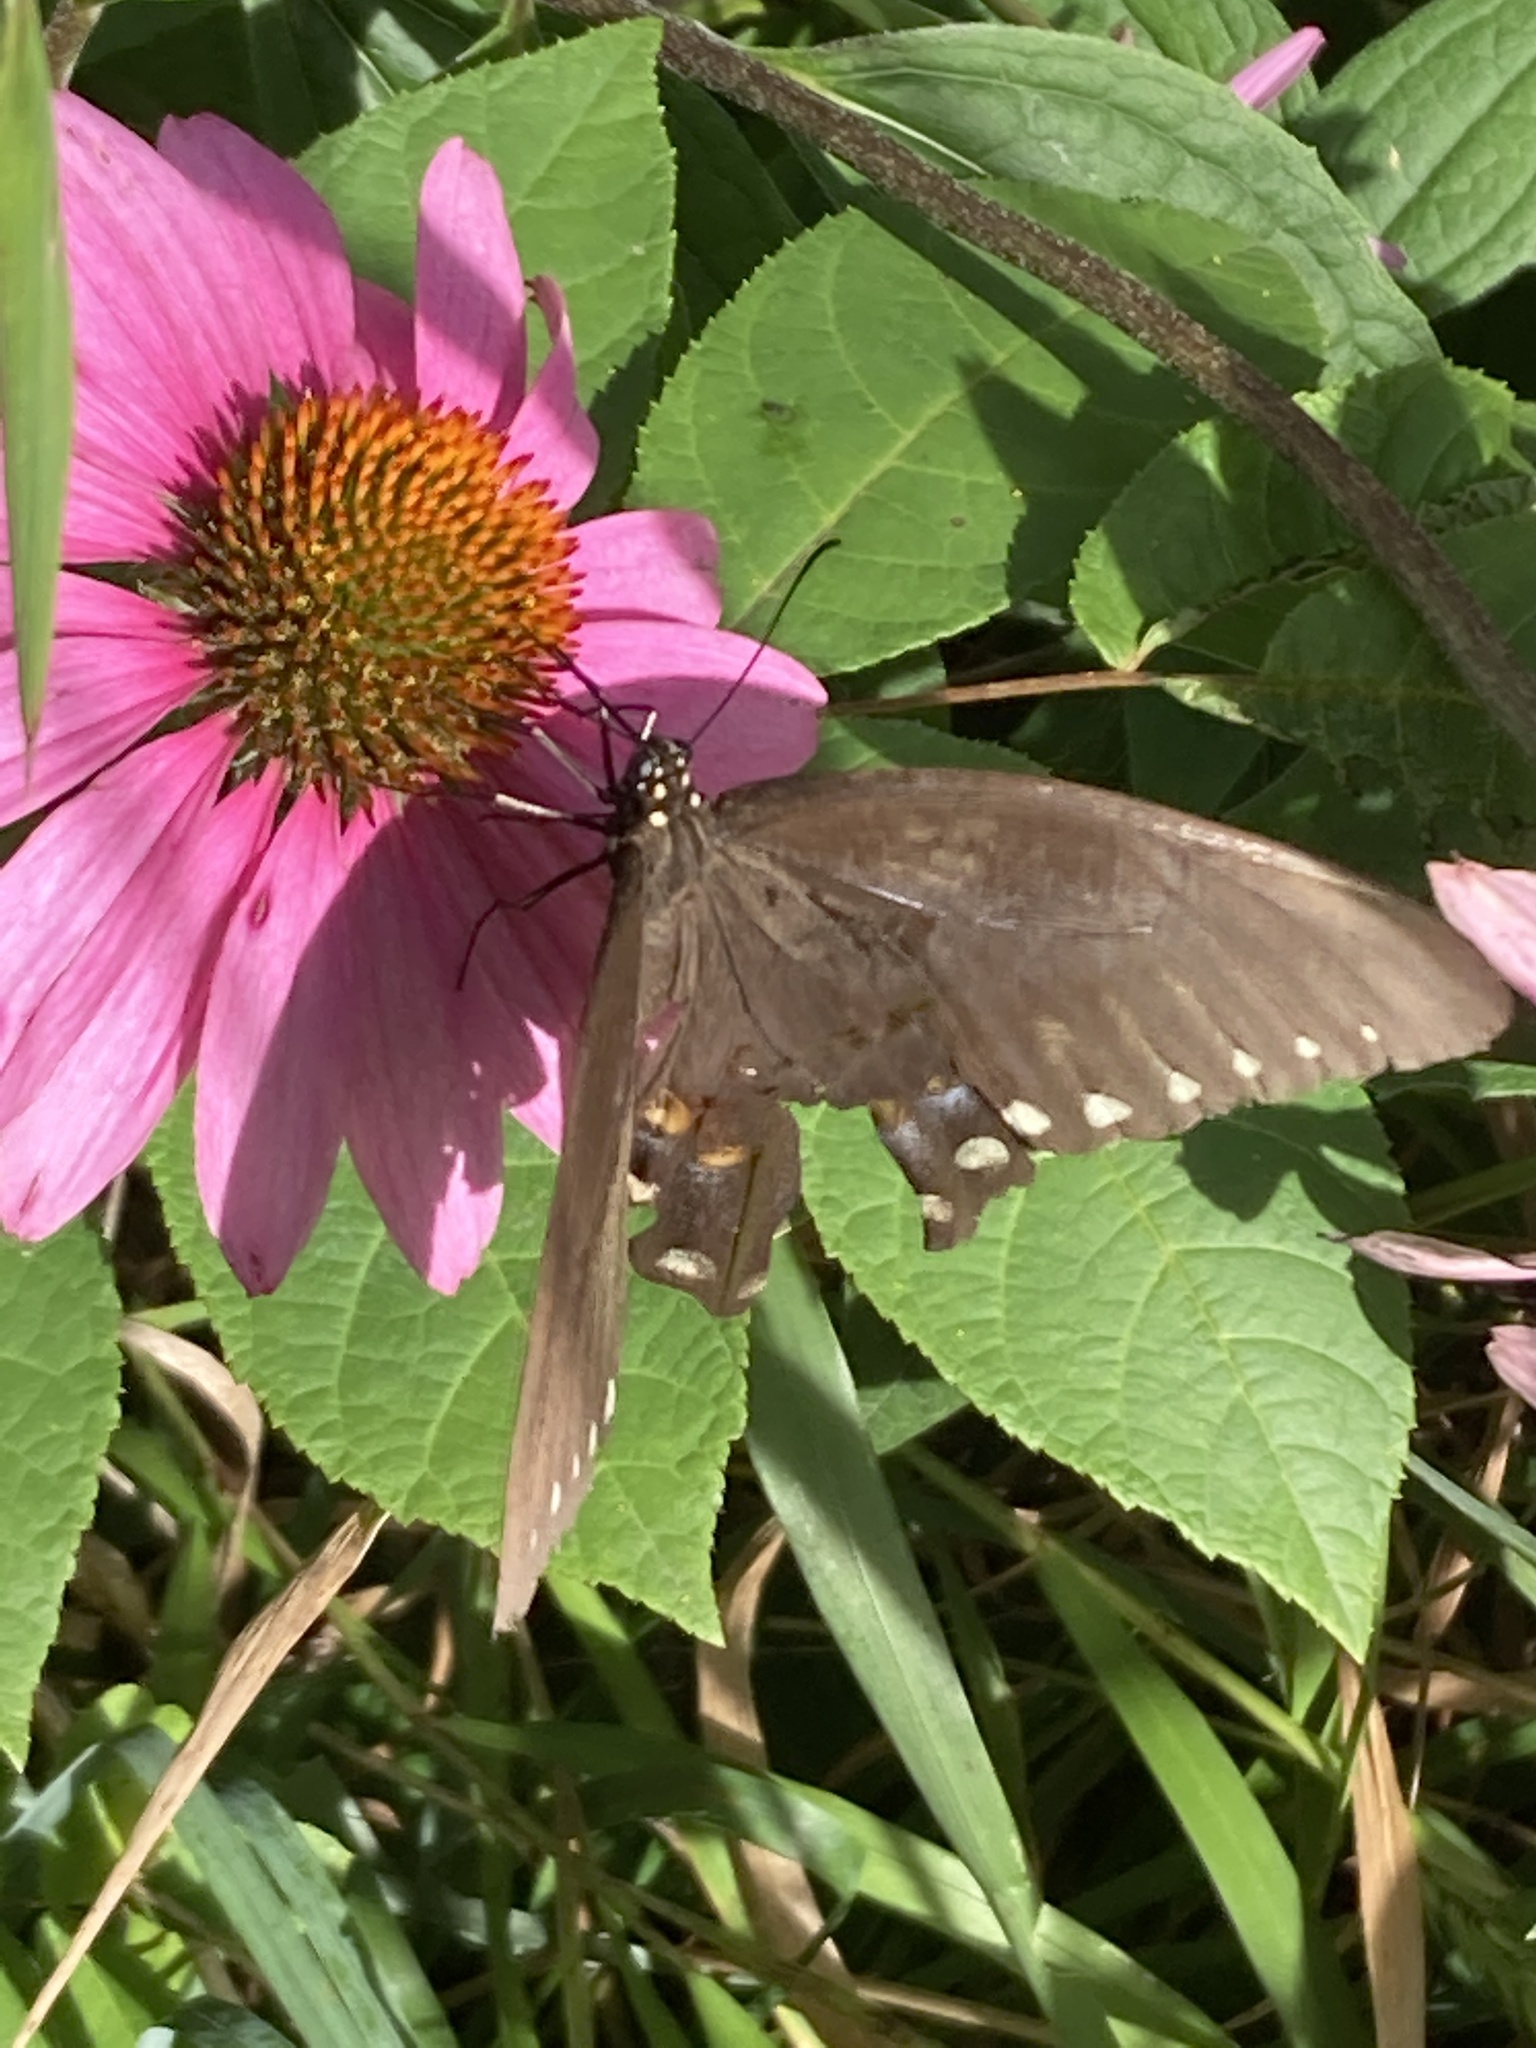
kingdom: Animalia
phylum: Arthropoda
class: Insecta
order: Lepidoptera
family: Papilionidae
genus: Papilio
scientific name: Papilio troilus
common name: Spicebush swallowtail
